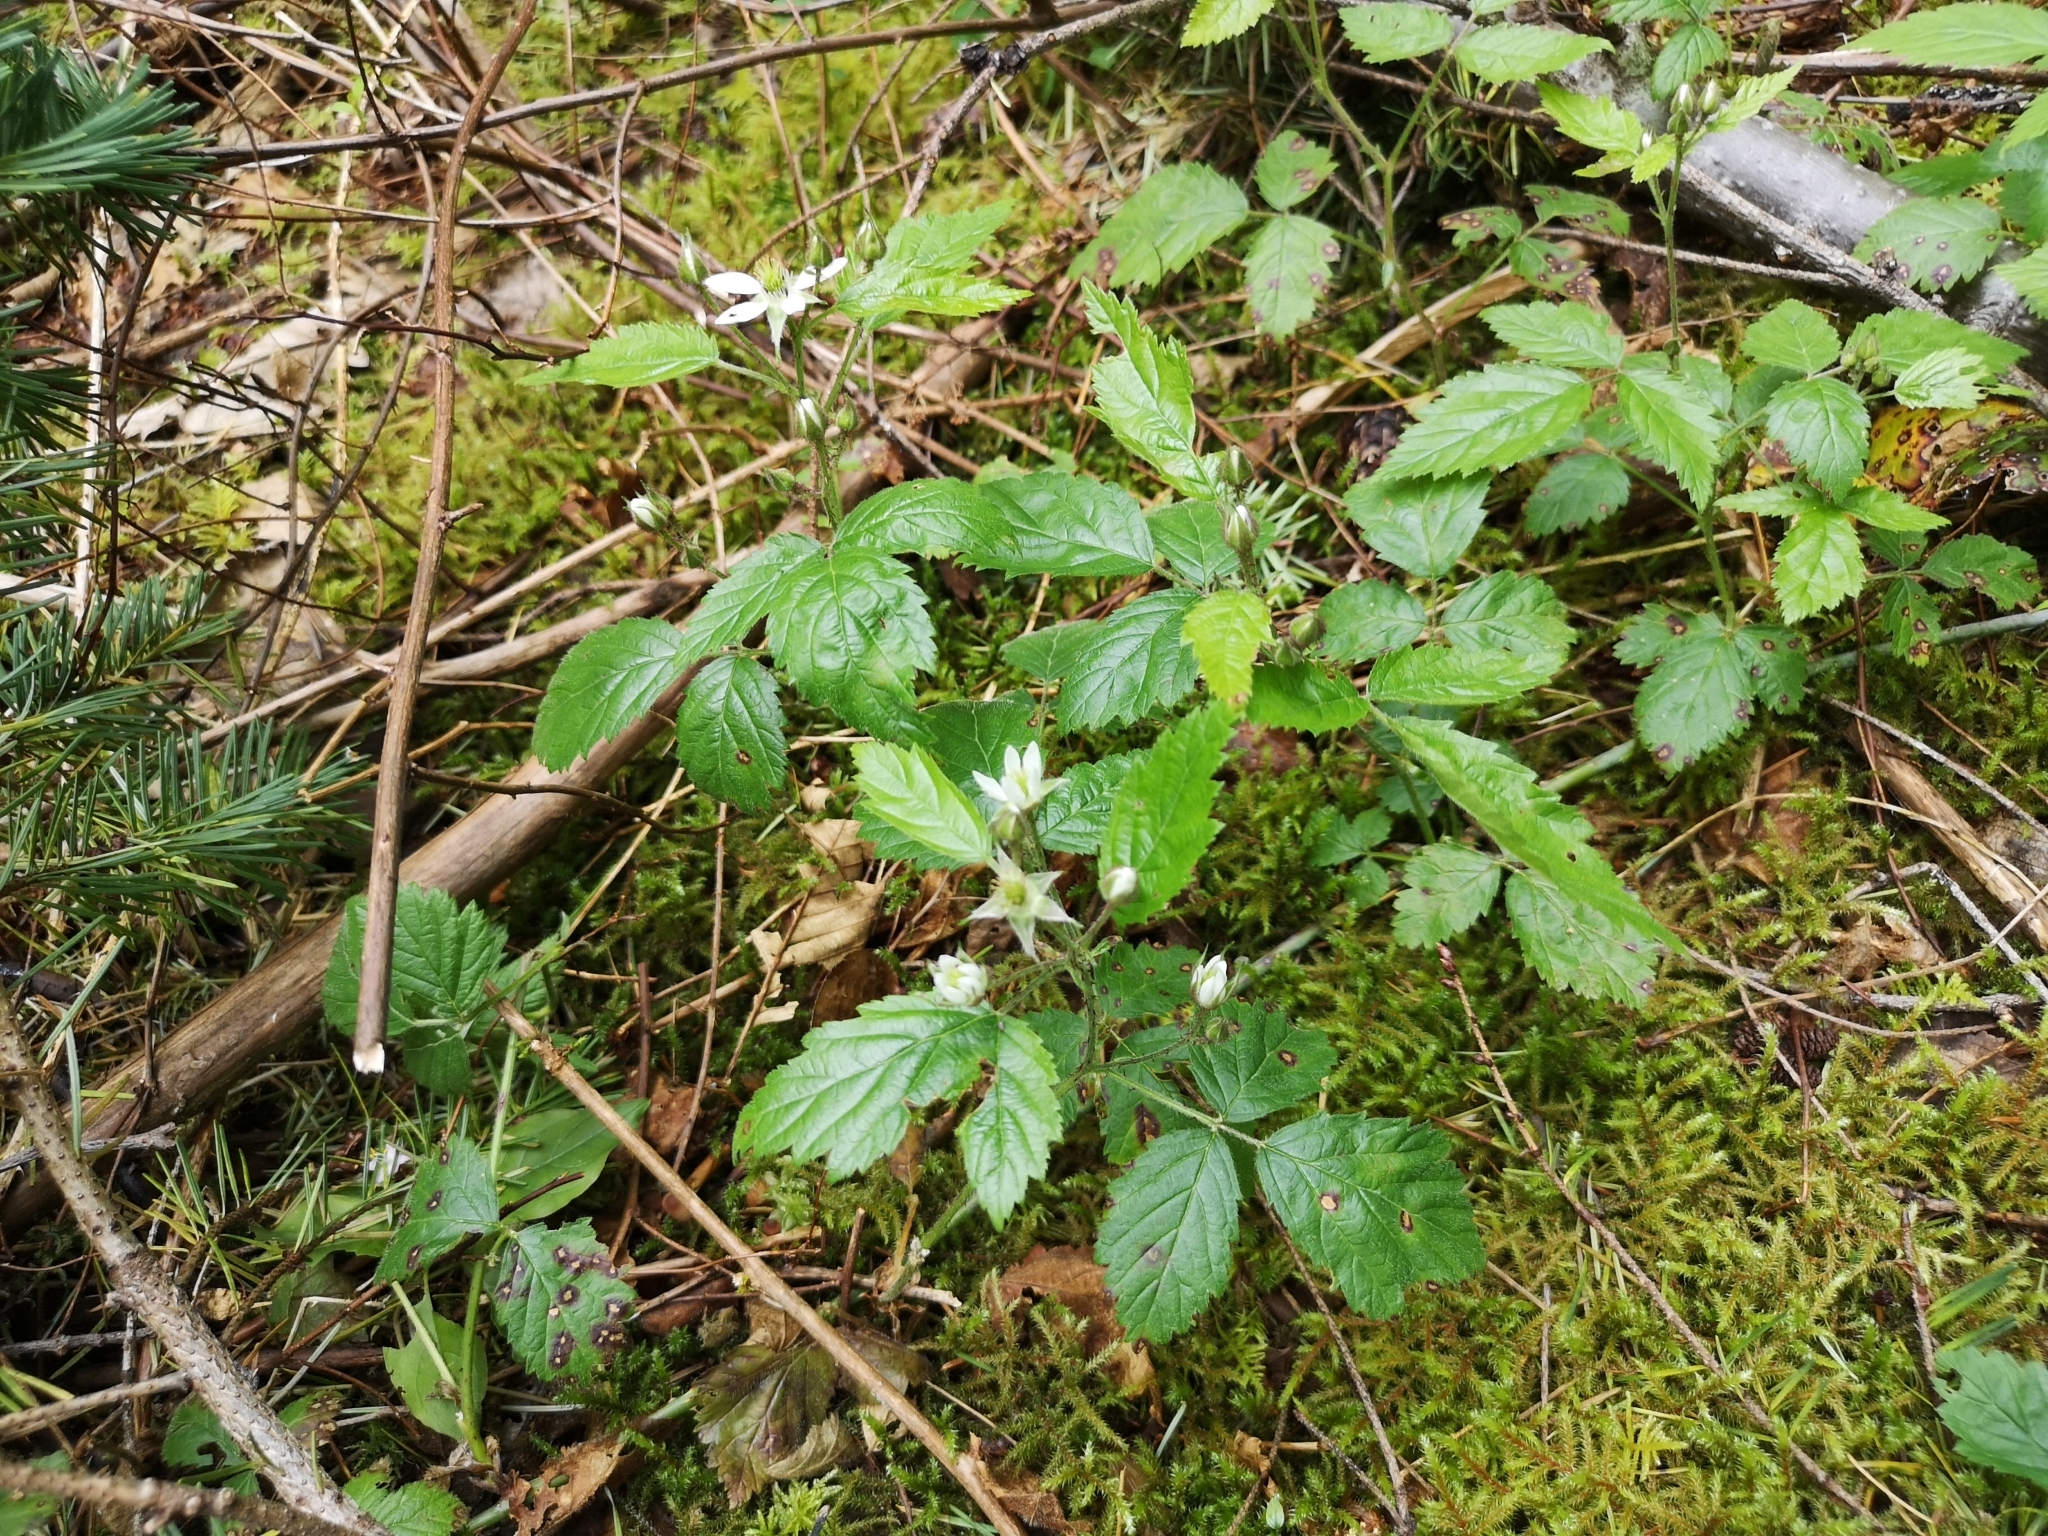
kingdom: Plantae
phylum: Tracheophyta
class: Magnoliopsida
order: Rosales
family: Rosaceae
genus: Rubus
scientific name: Rubus ursinus
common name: Pacific blackberry
